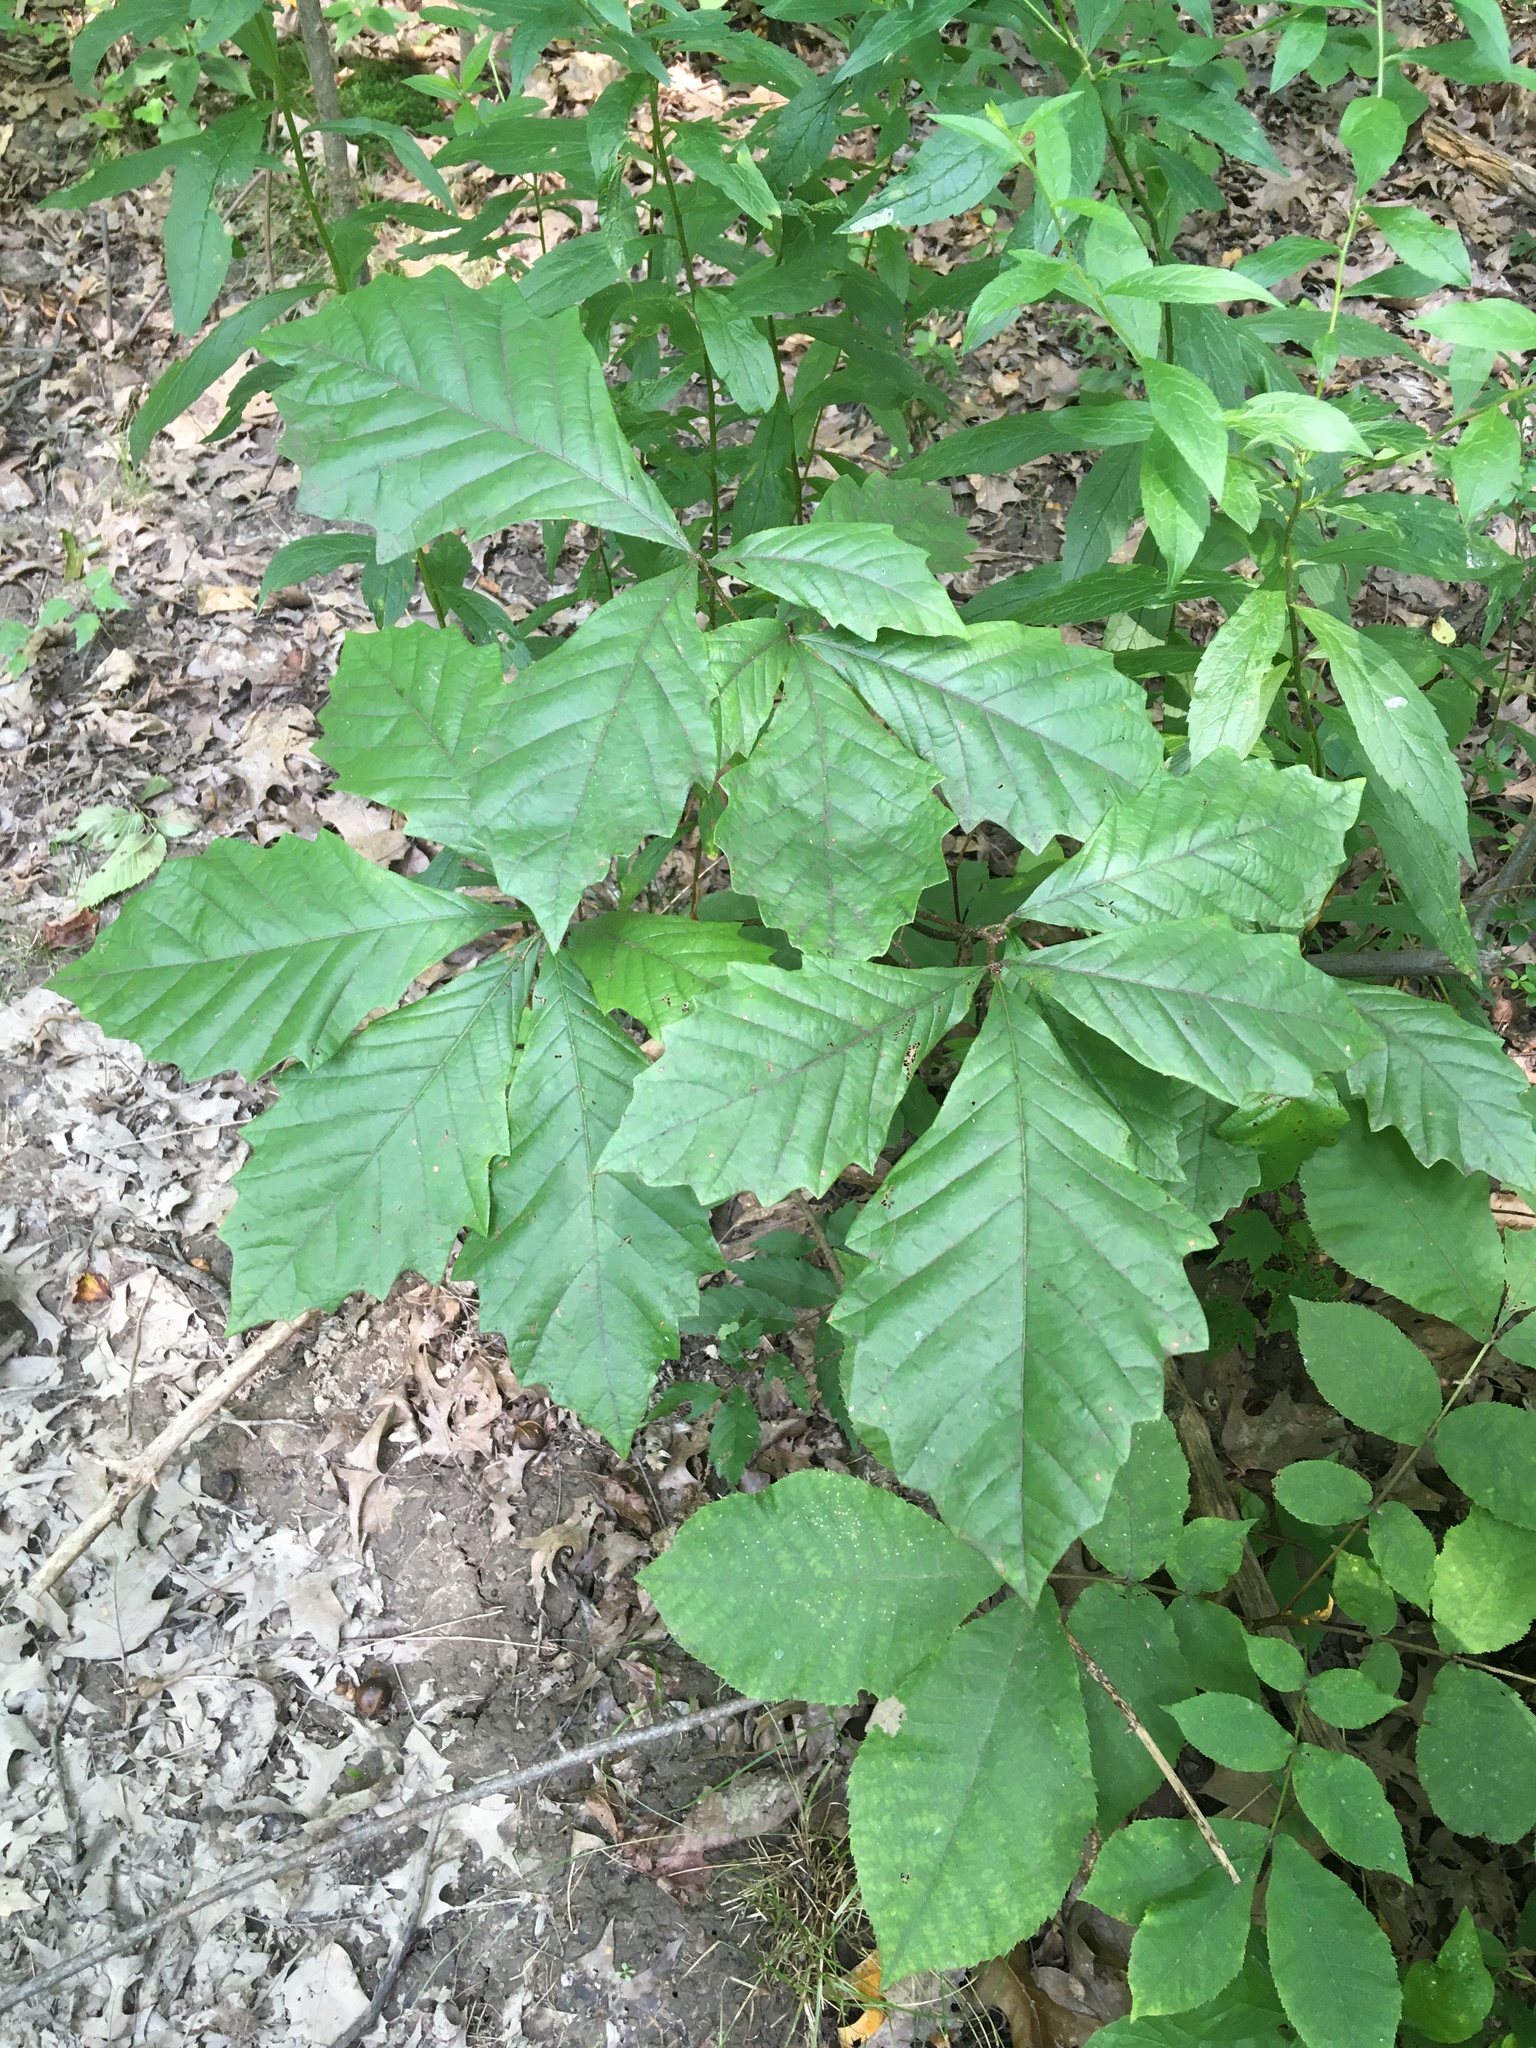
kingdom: Plantae
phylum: Tracheophyta
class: Magnoliopsida
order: Fagales
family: Fagaceae
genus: Quercus
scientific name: Quercus bicolor
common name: Swamp white oak
